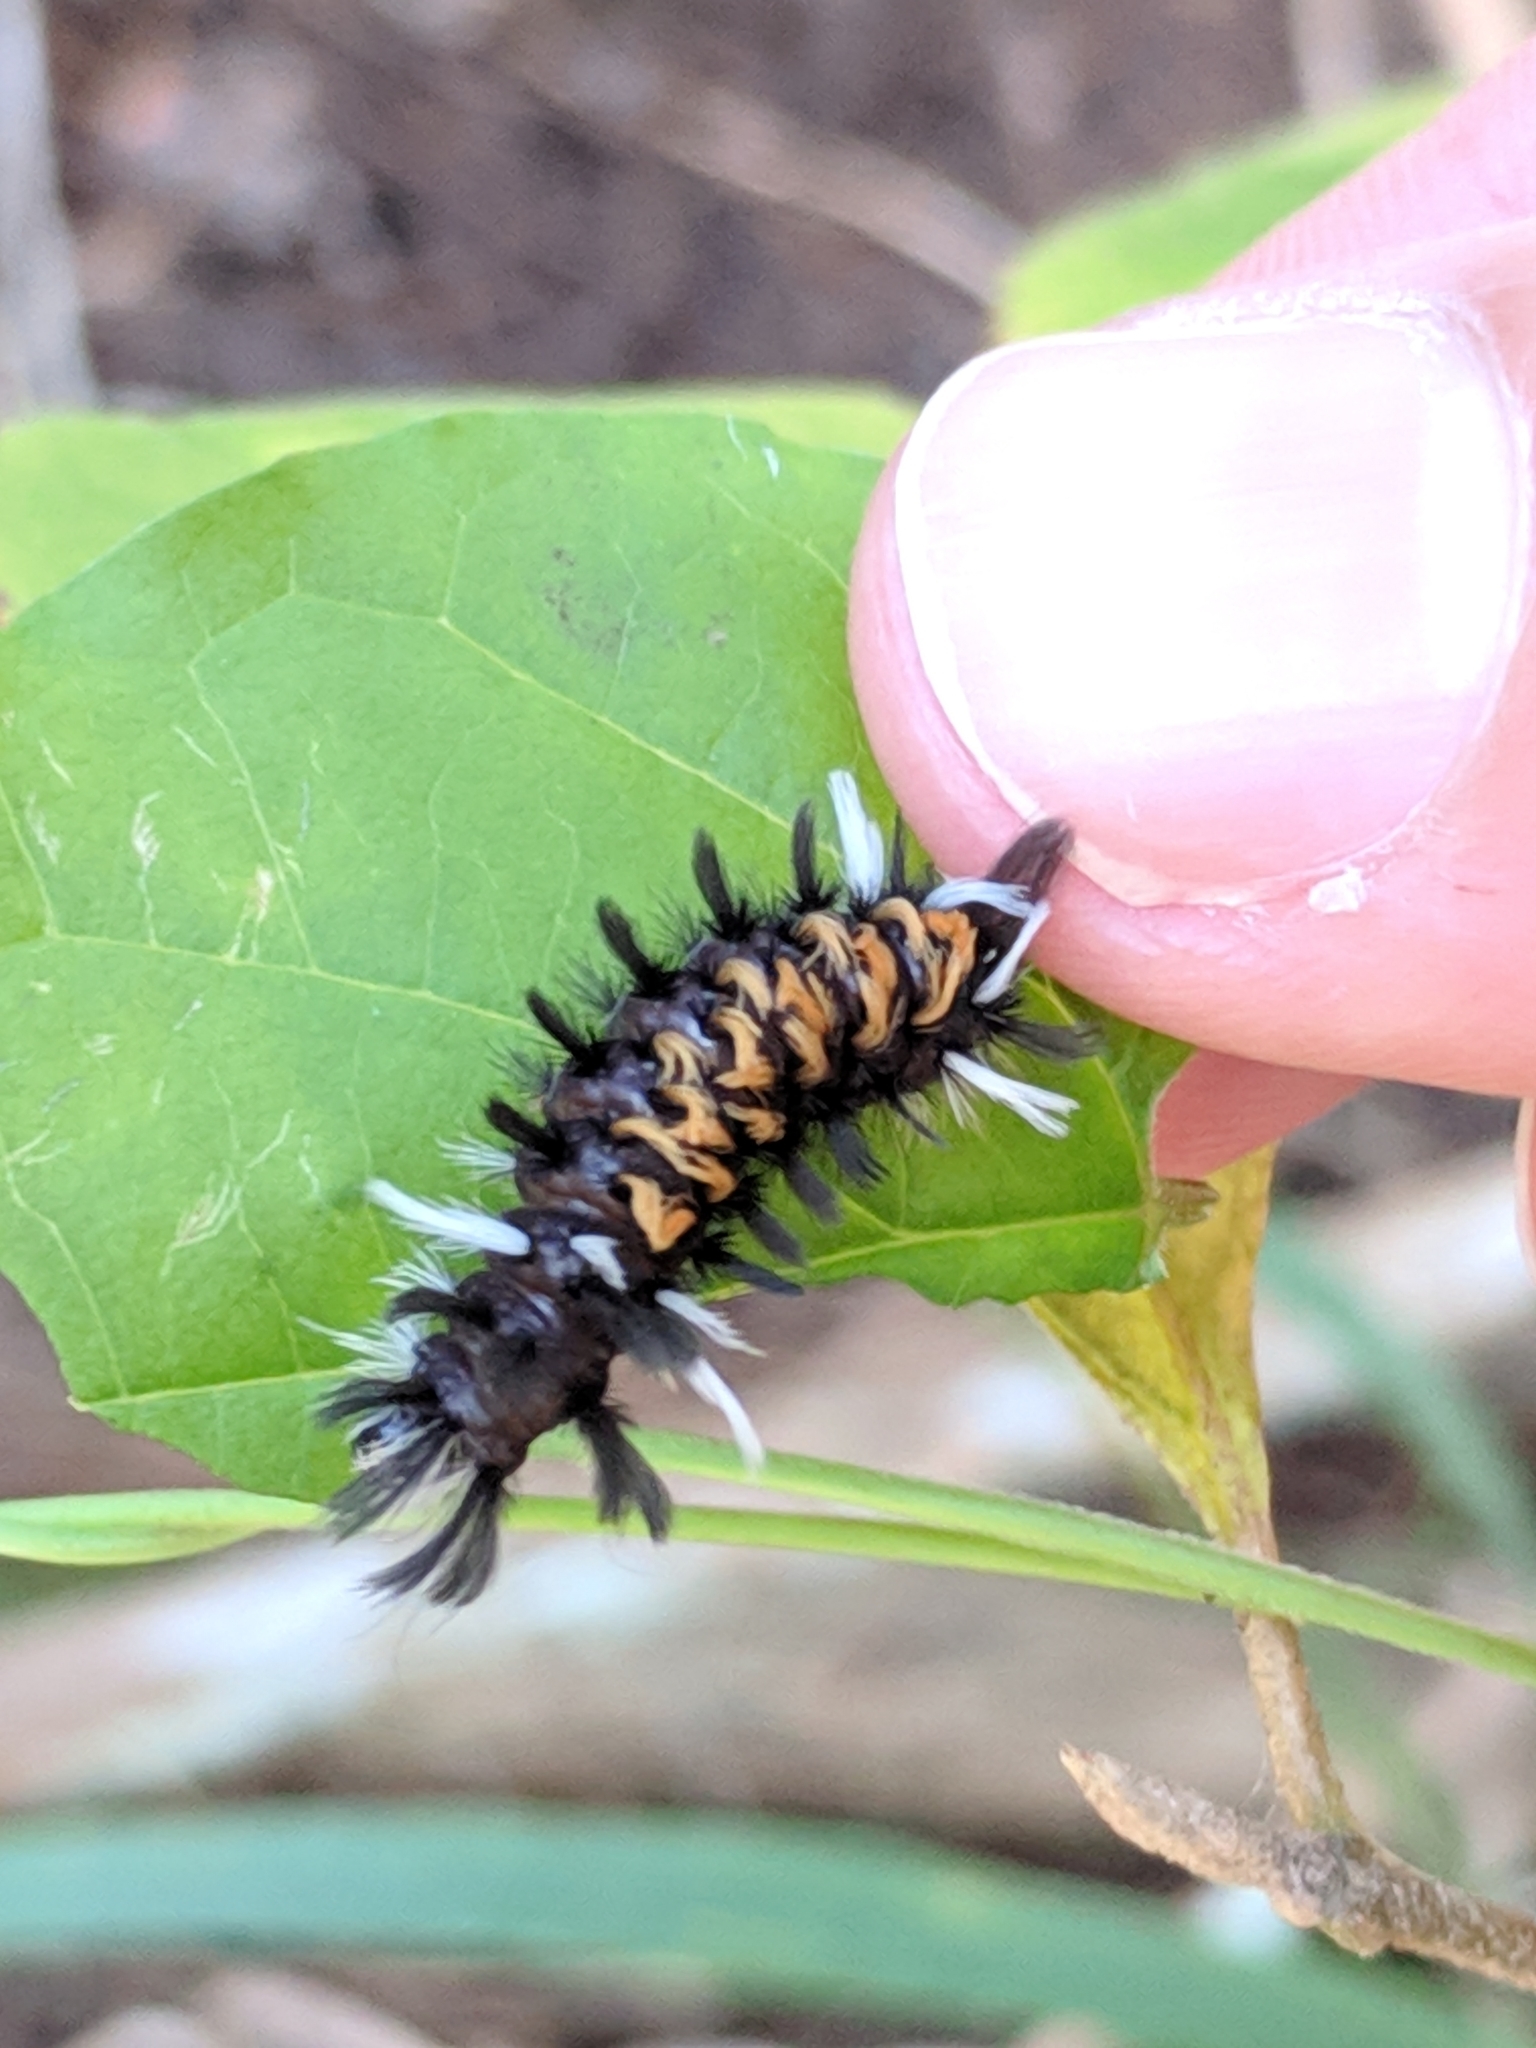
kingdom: Animalia
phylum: Arthropoda
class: Insecta
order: Lepidoptera
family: Erebidae
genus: Euchaetes
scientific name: Euchaetes egle
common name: Milkweed tussock moth
